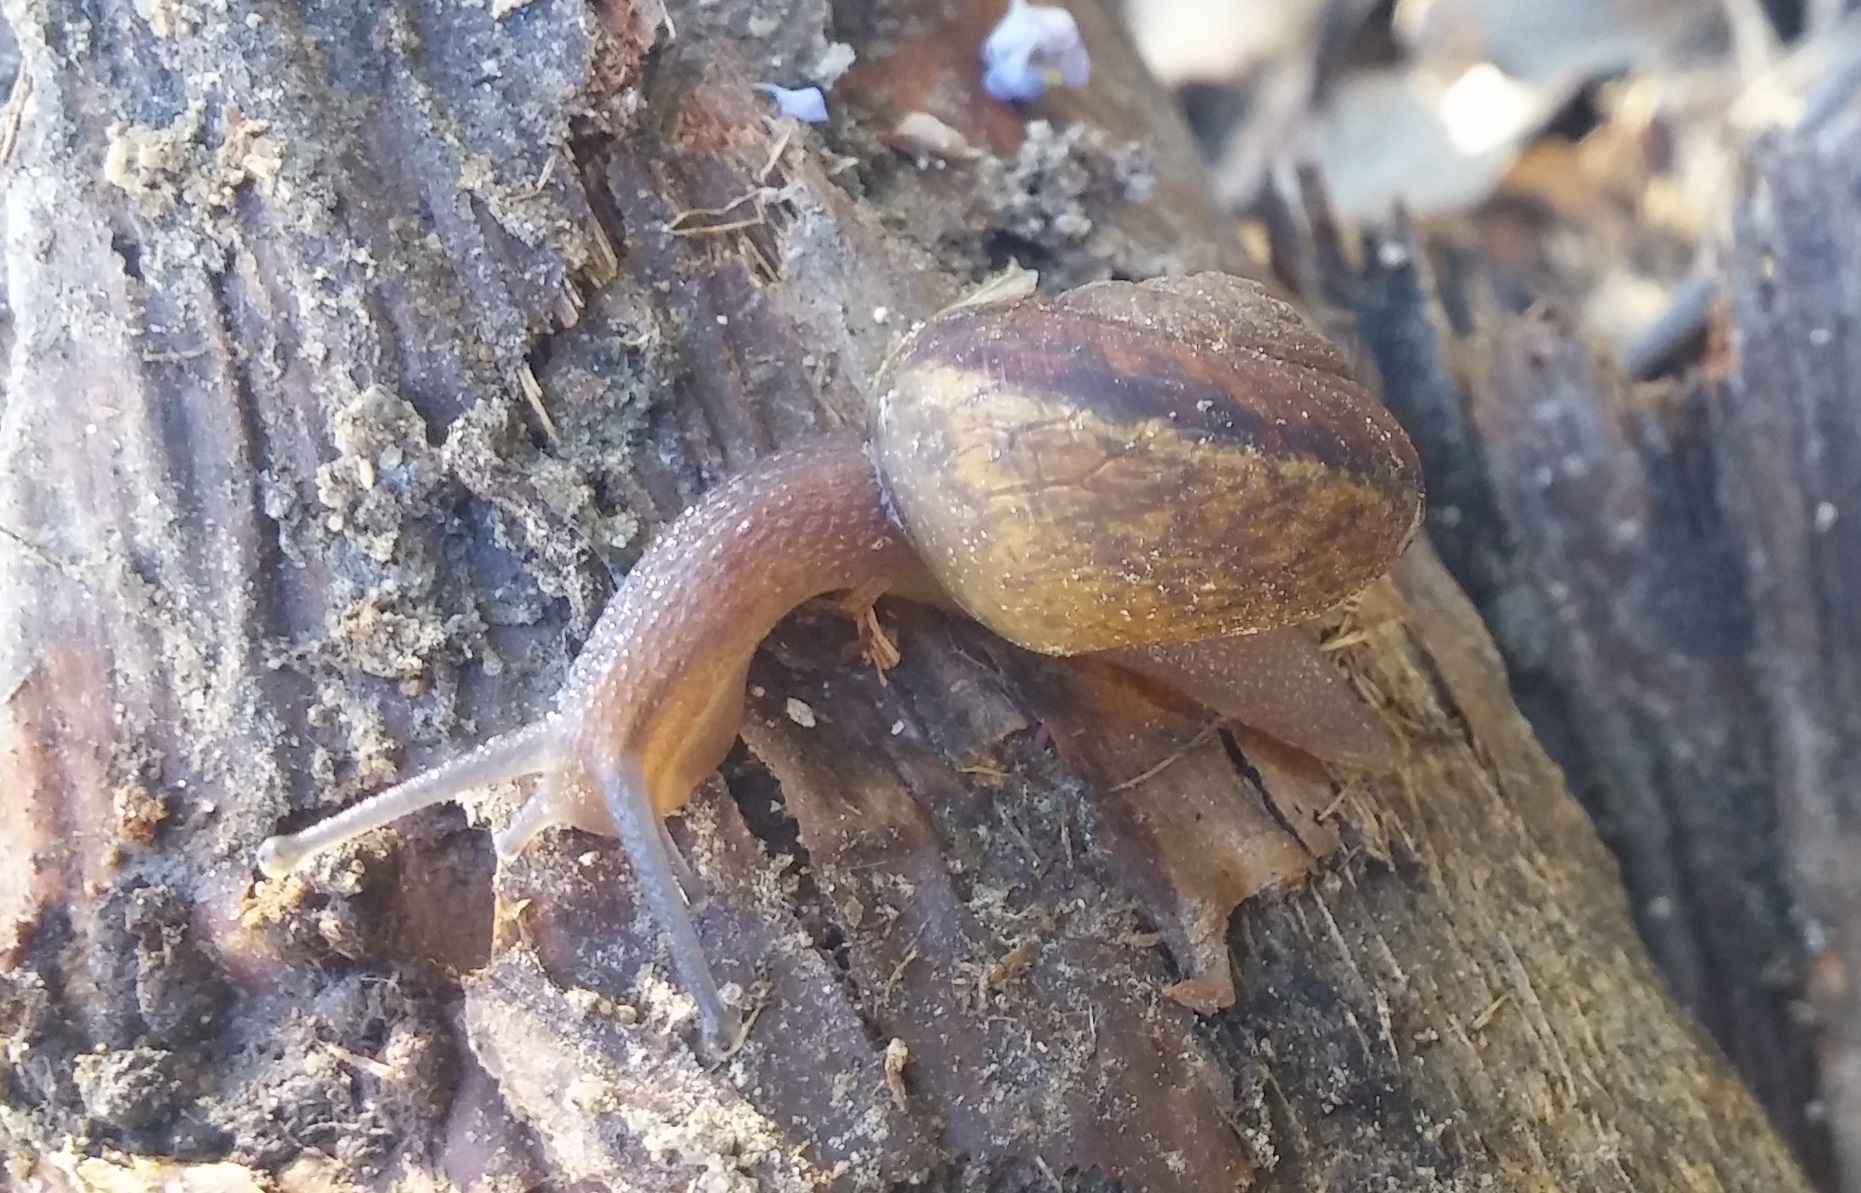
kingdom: Animalia
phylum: Mollusca
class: Gastropoda
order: Stylommatophora
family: Xanthonychidae
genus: Xerarionta
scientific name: Xerarionta stearnsiana
